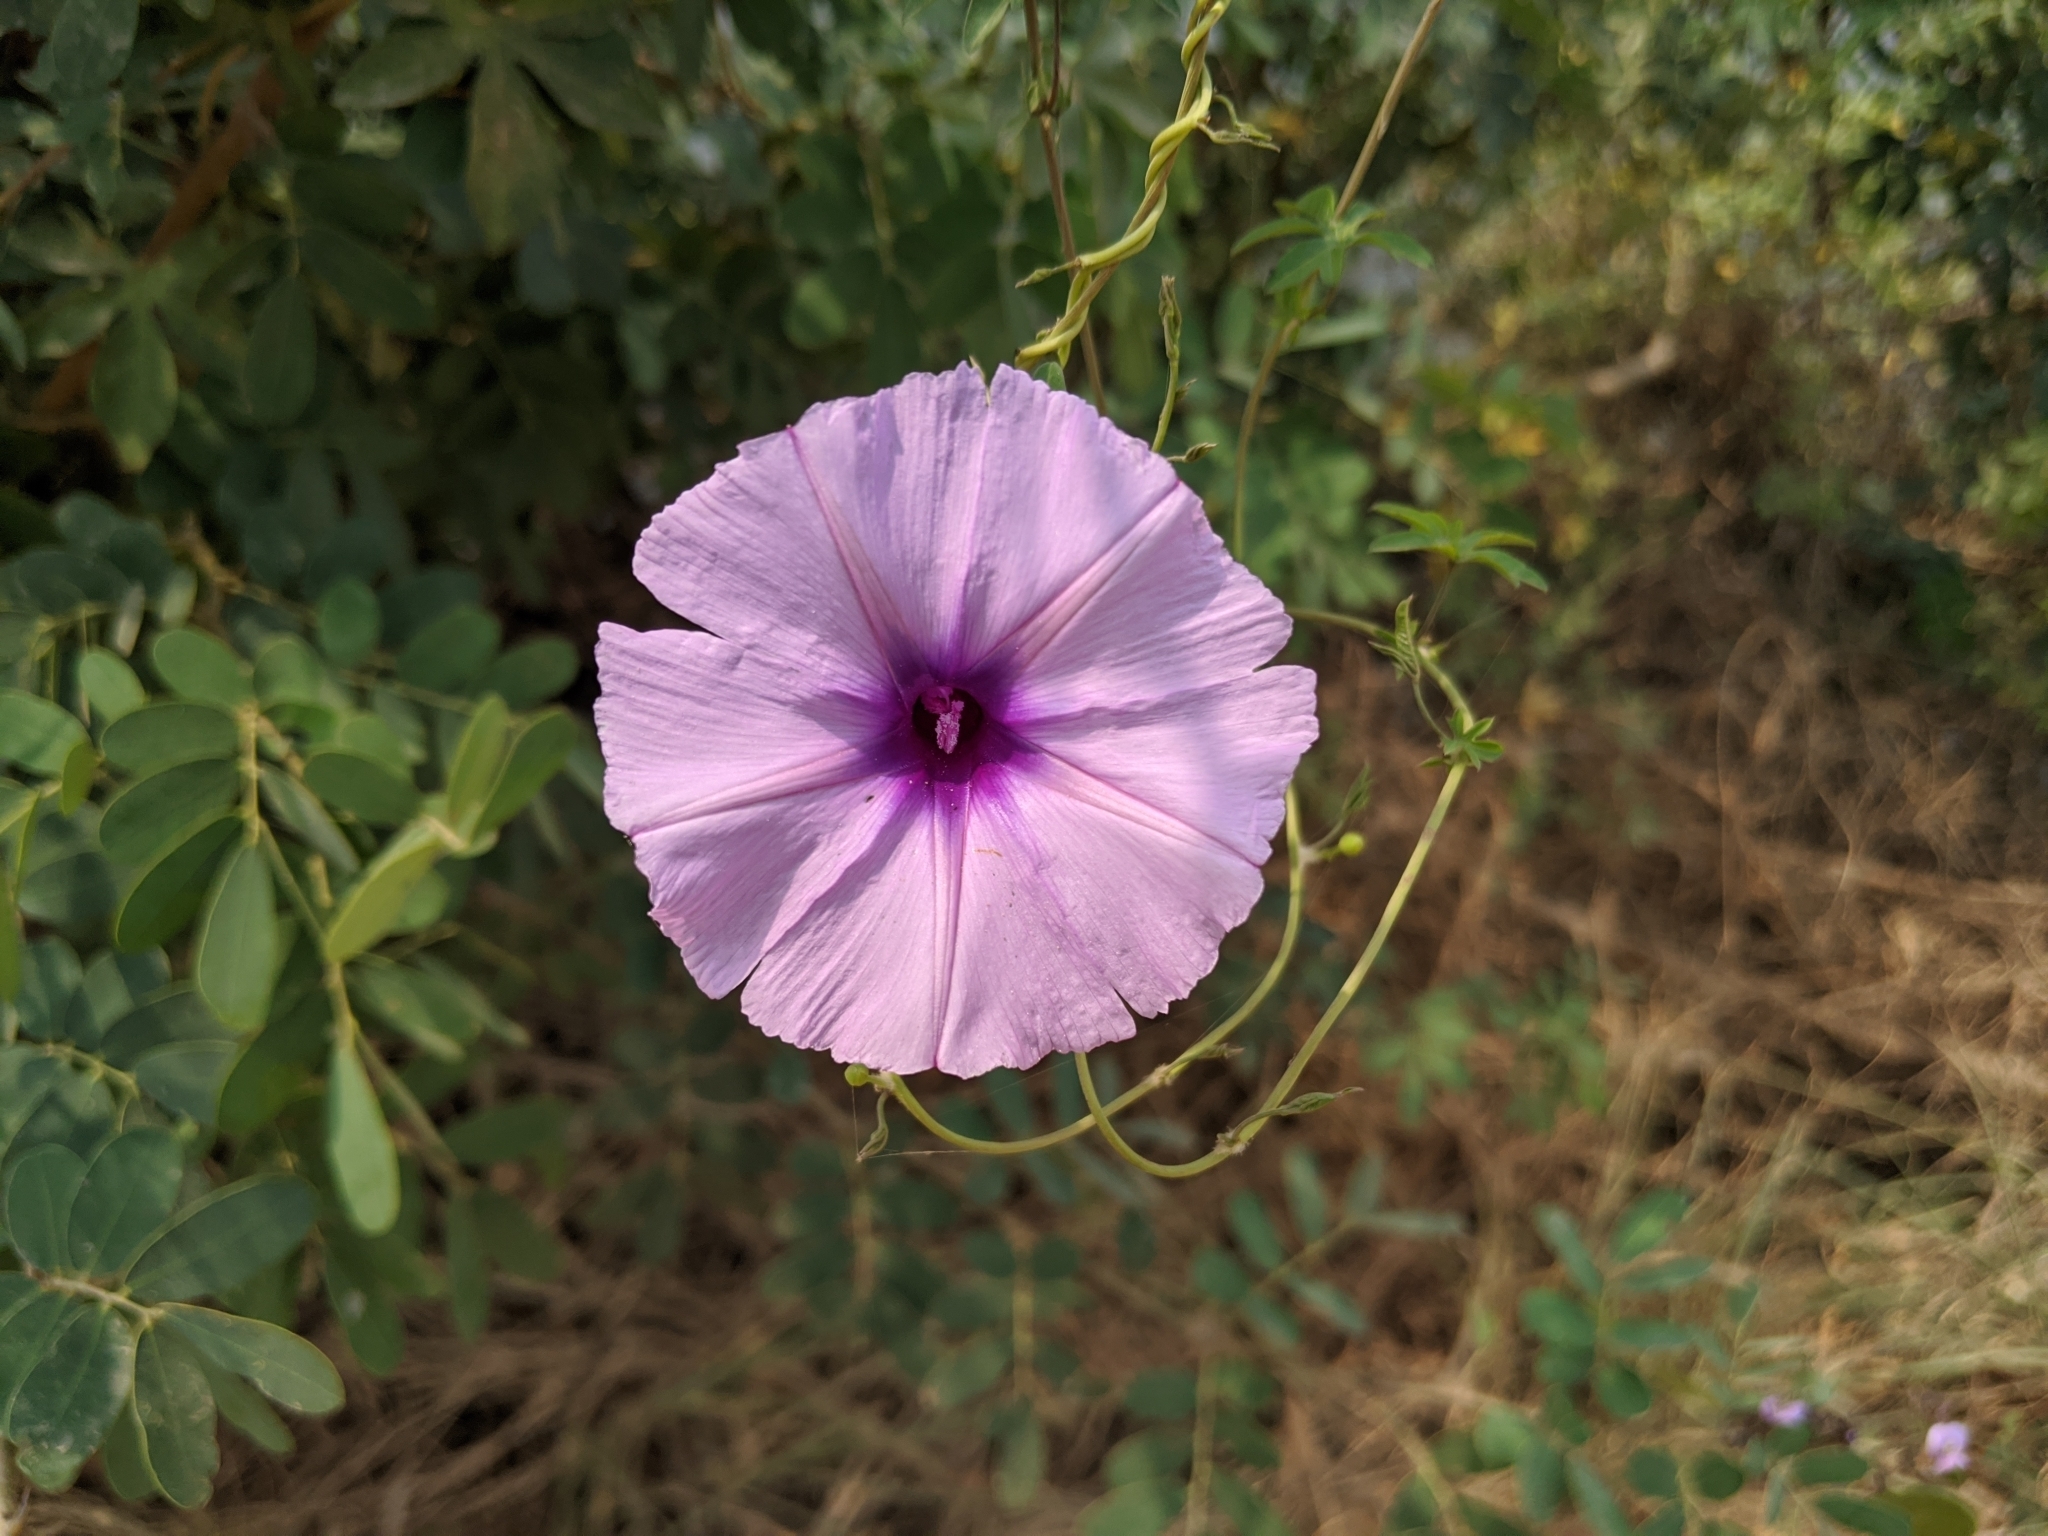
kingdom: Plantae
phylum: Tracheophyta
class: Magnoliopsida
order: Solanales
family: Convolvulaceae
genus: Ipomoea
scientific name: Ipomoea cairica
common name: Mile a minute vine
